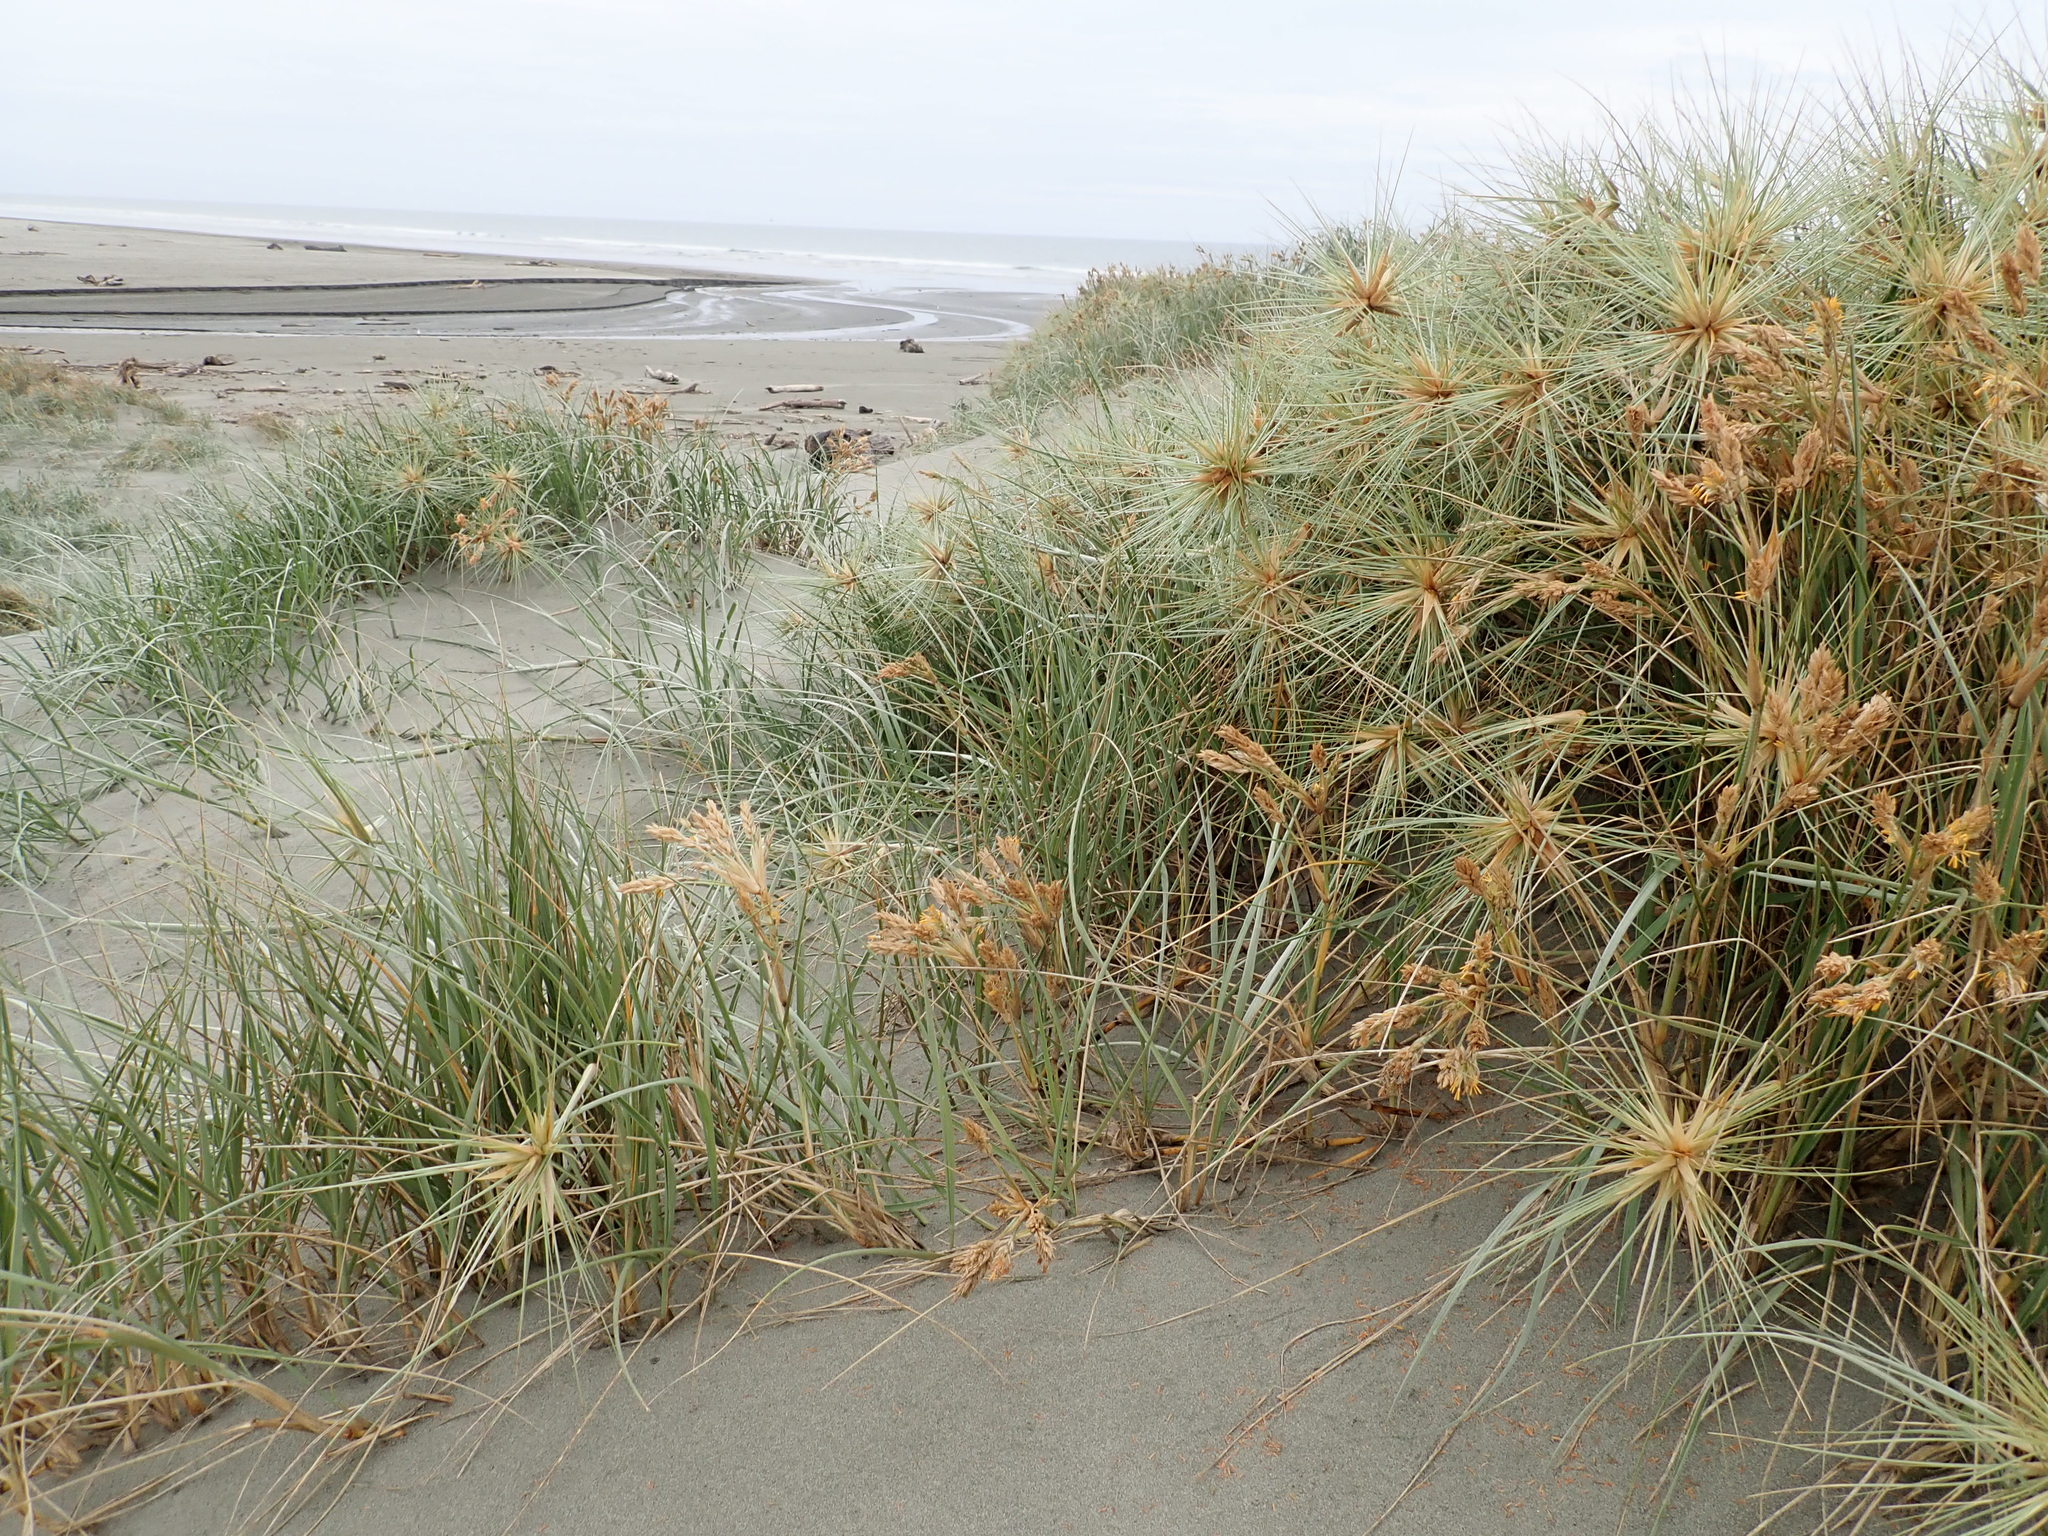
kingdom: Plantae
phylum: Tracheophyta
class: Liliopsida
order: Poales
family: Poaceae
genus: Spinifex
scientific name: Spinifex sericeus
